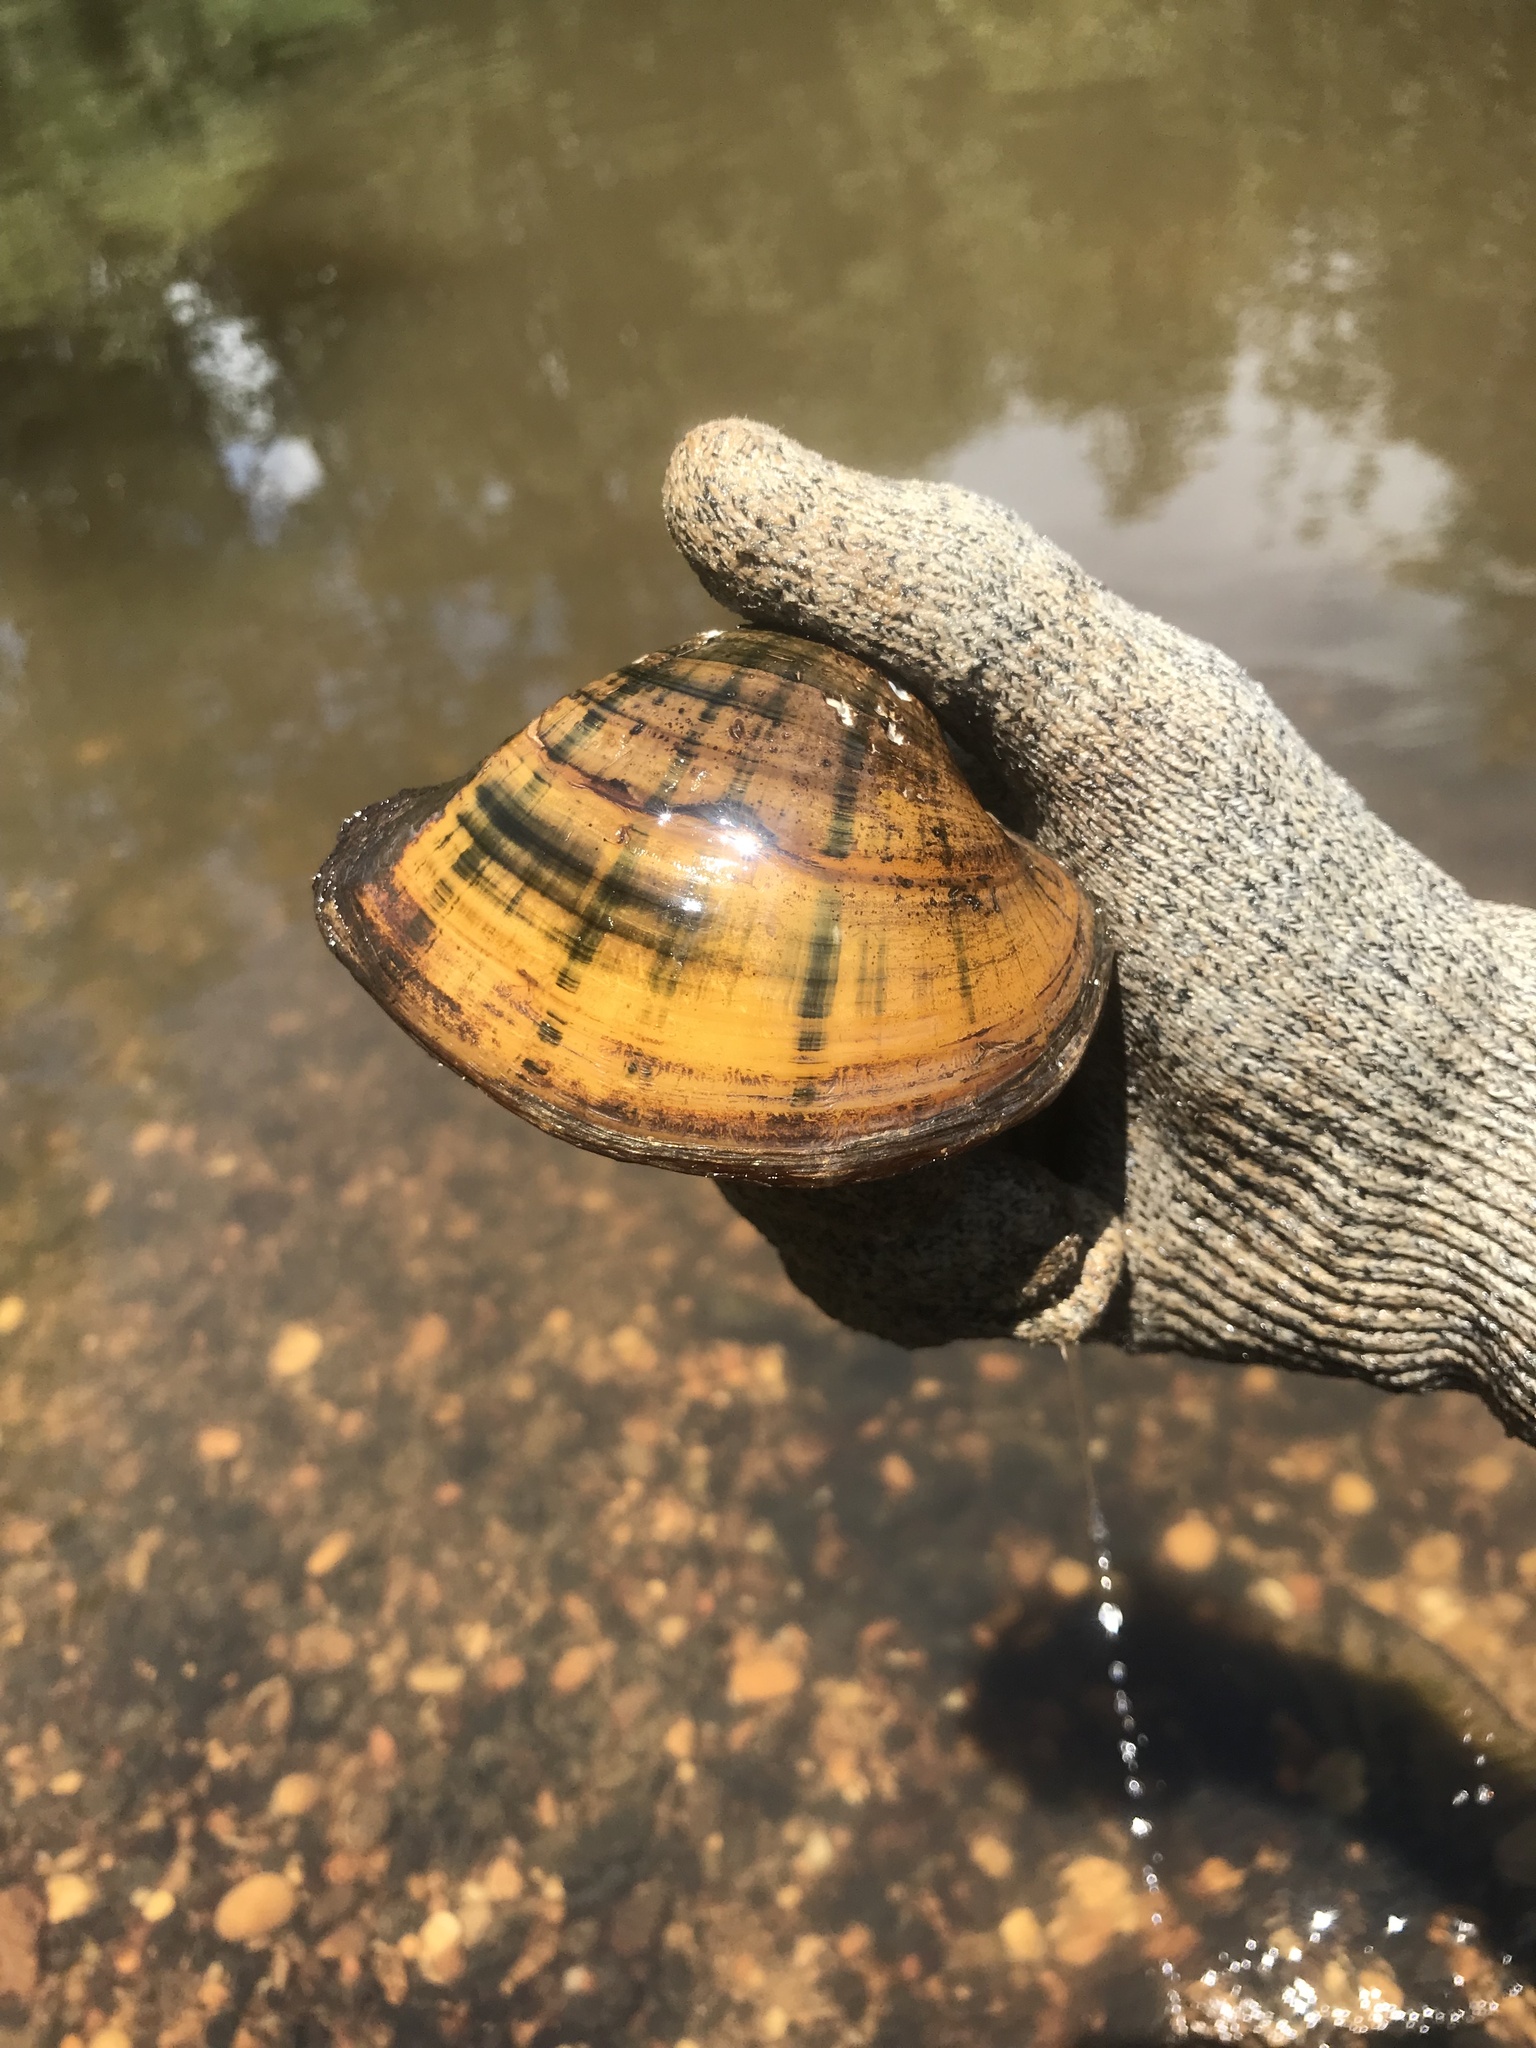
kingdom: Animalia
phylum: Mollusca
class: Bivalvia
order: Unionida
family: Unionidae
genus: Lampsilis
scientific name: Lampsilis ornata
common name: Southern pocketbook
